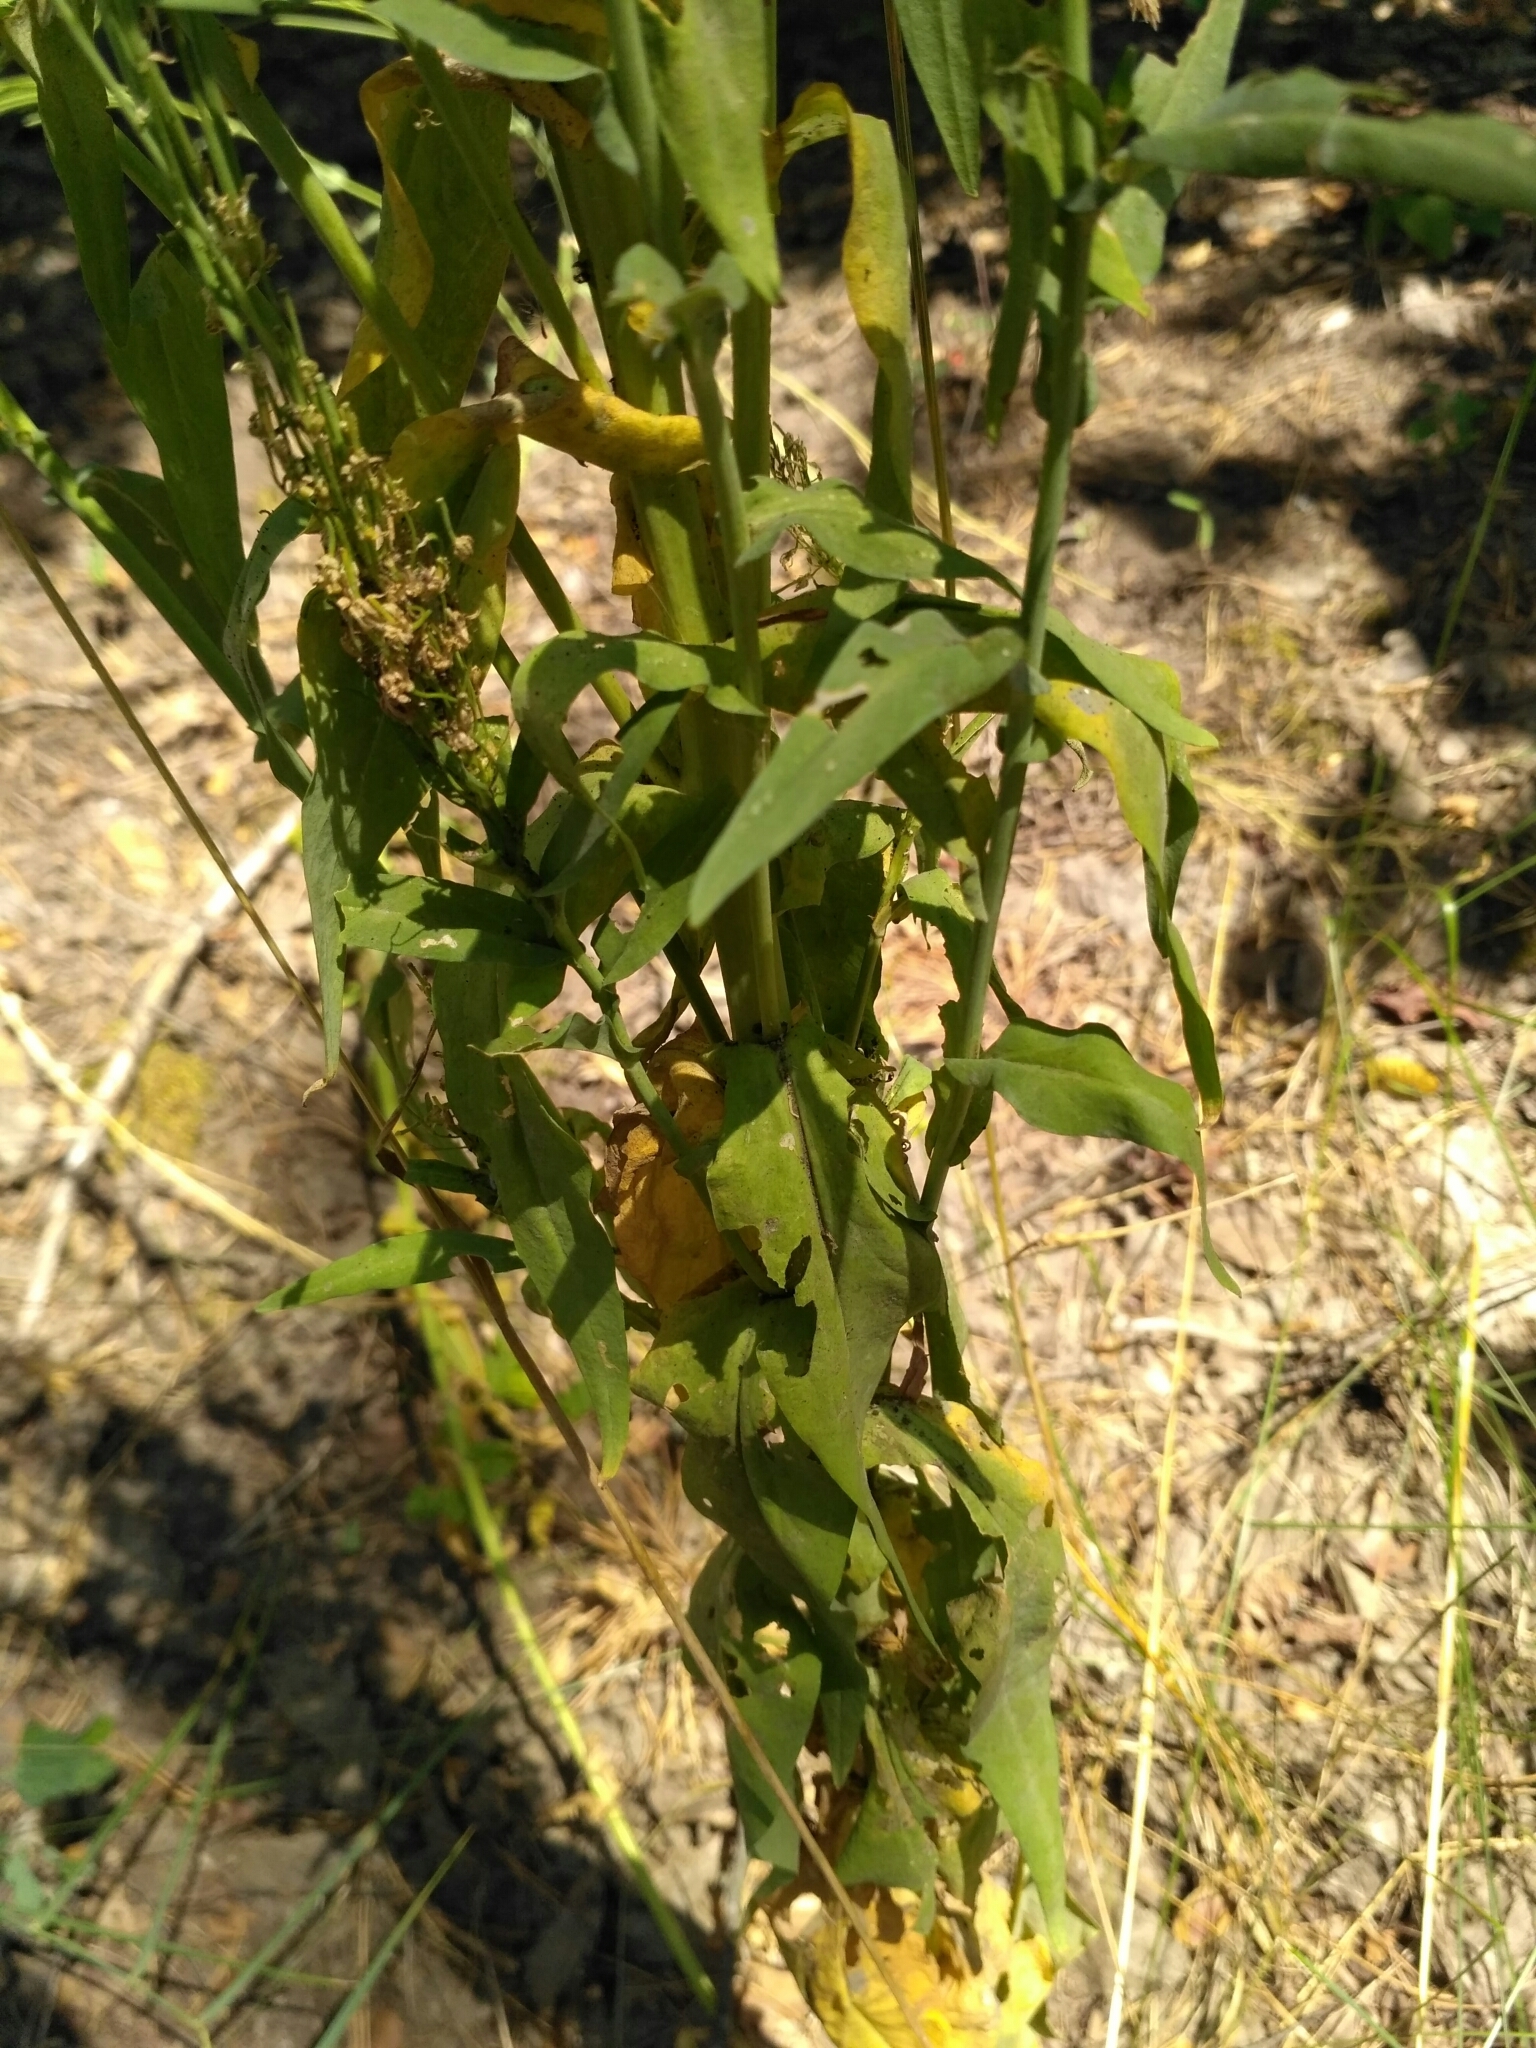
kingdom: Plantae
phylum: Tracheophyta
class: Magnoliopsida
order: Brassicales
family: Brassicaceae
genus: Turritis
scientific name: Turritis glabra
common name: Tower rockcress
